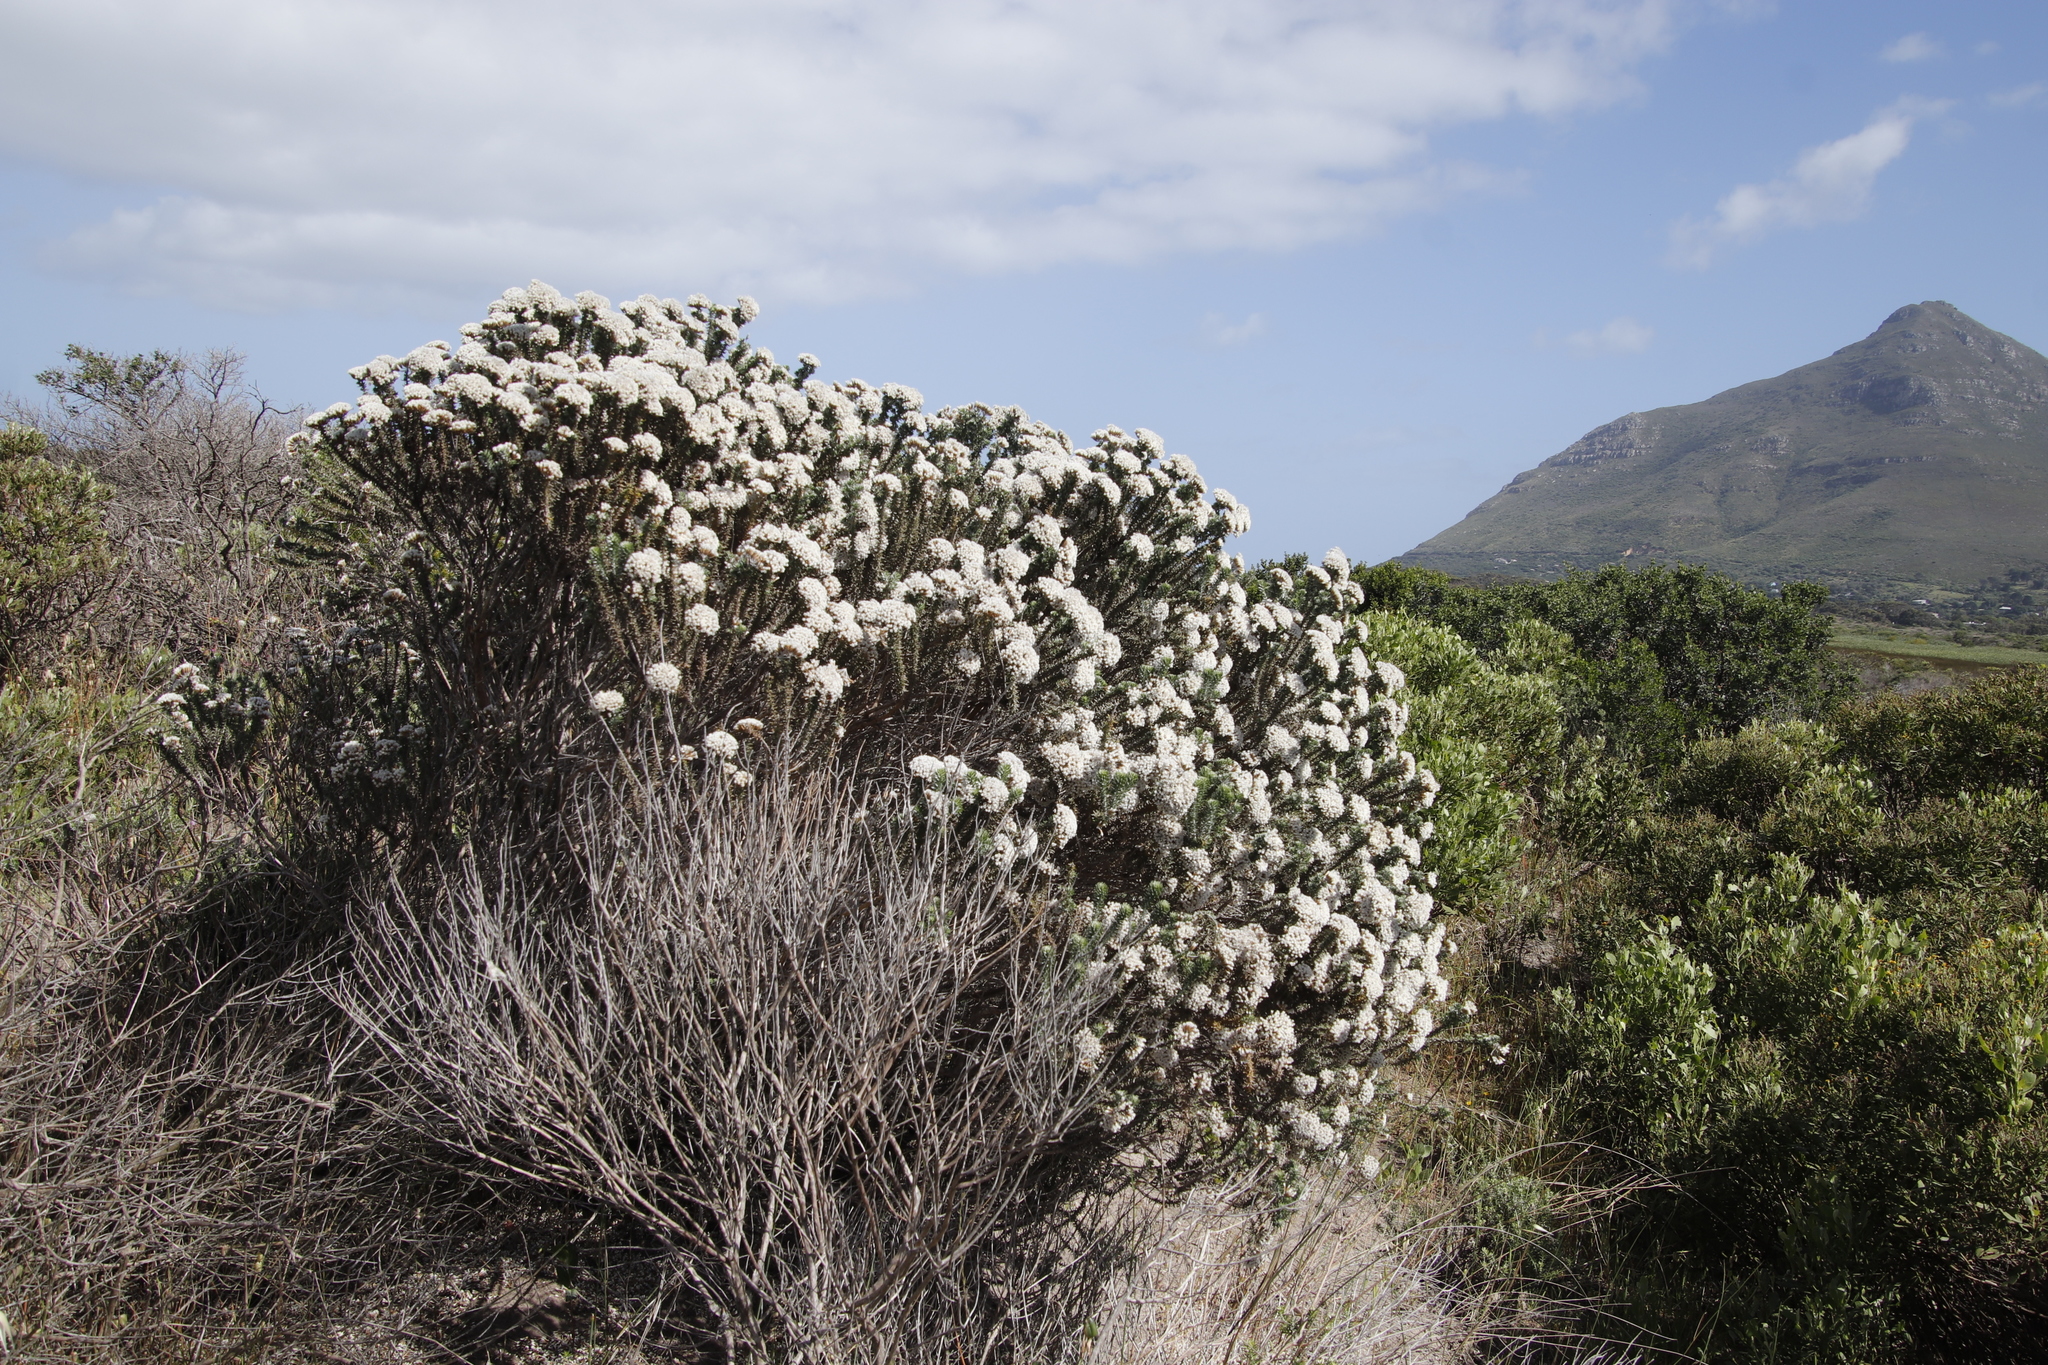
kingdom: Plantae
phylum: Tracheophyta
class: Magnoliopsida
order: Asterales
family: Asteraceae
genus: Metalasia
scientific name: Metalasia muricata
